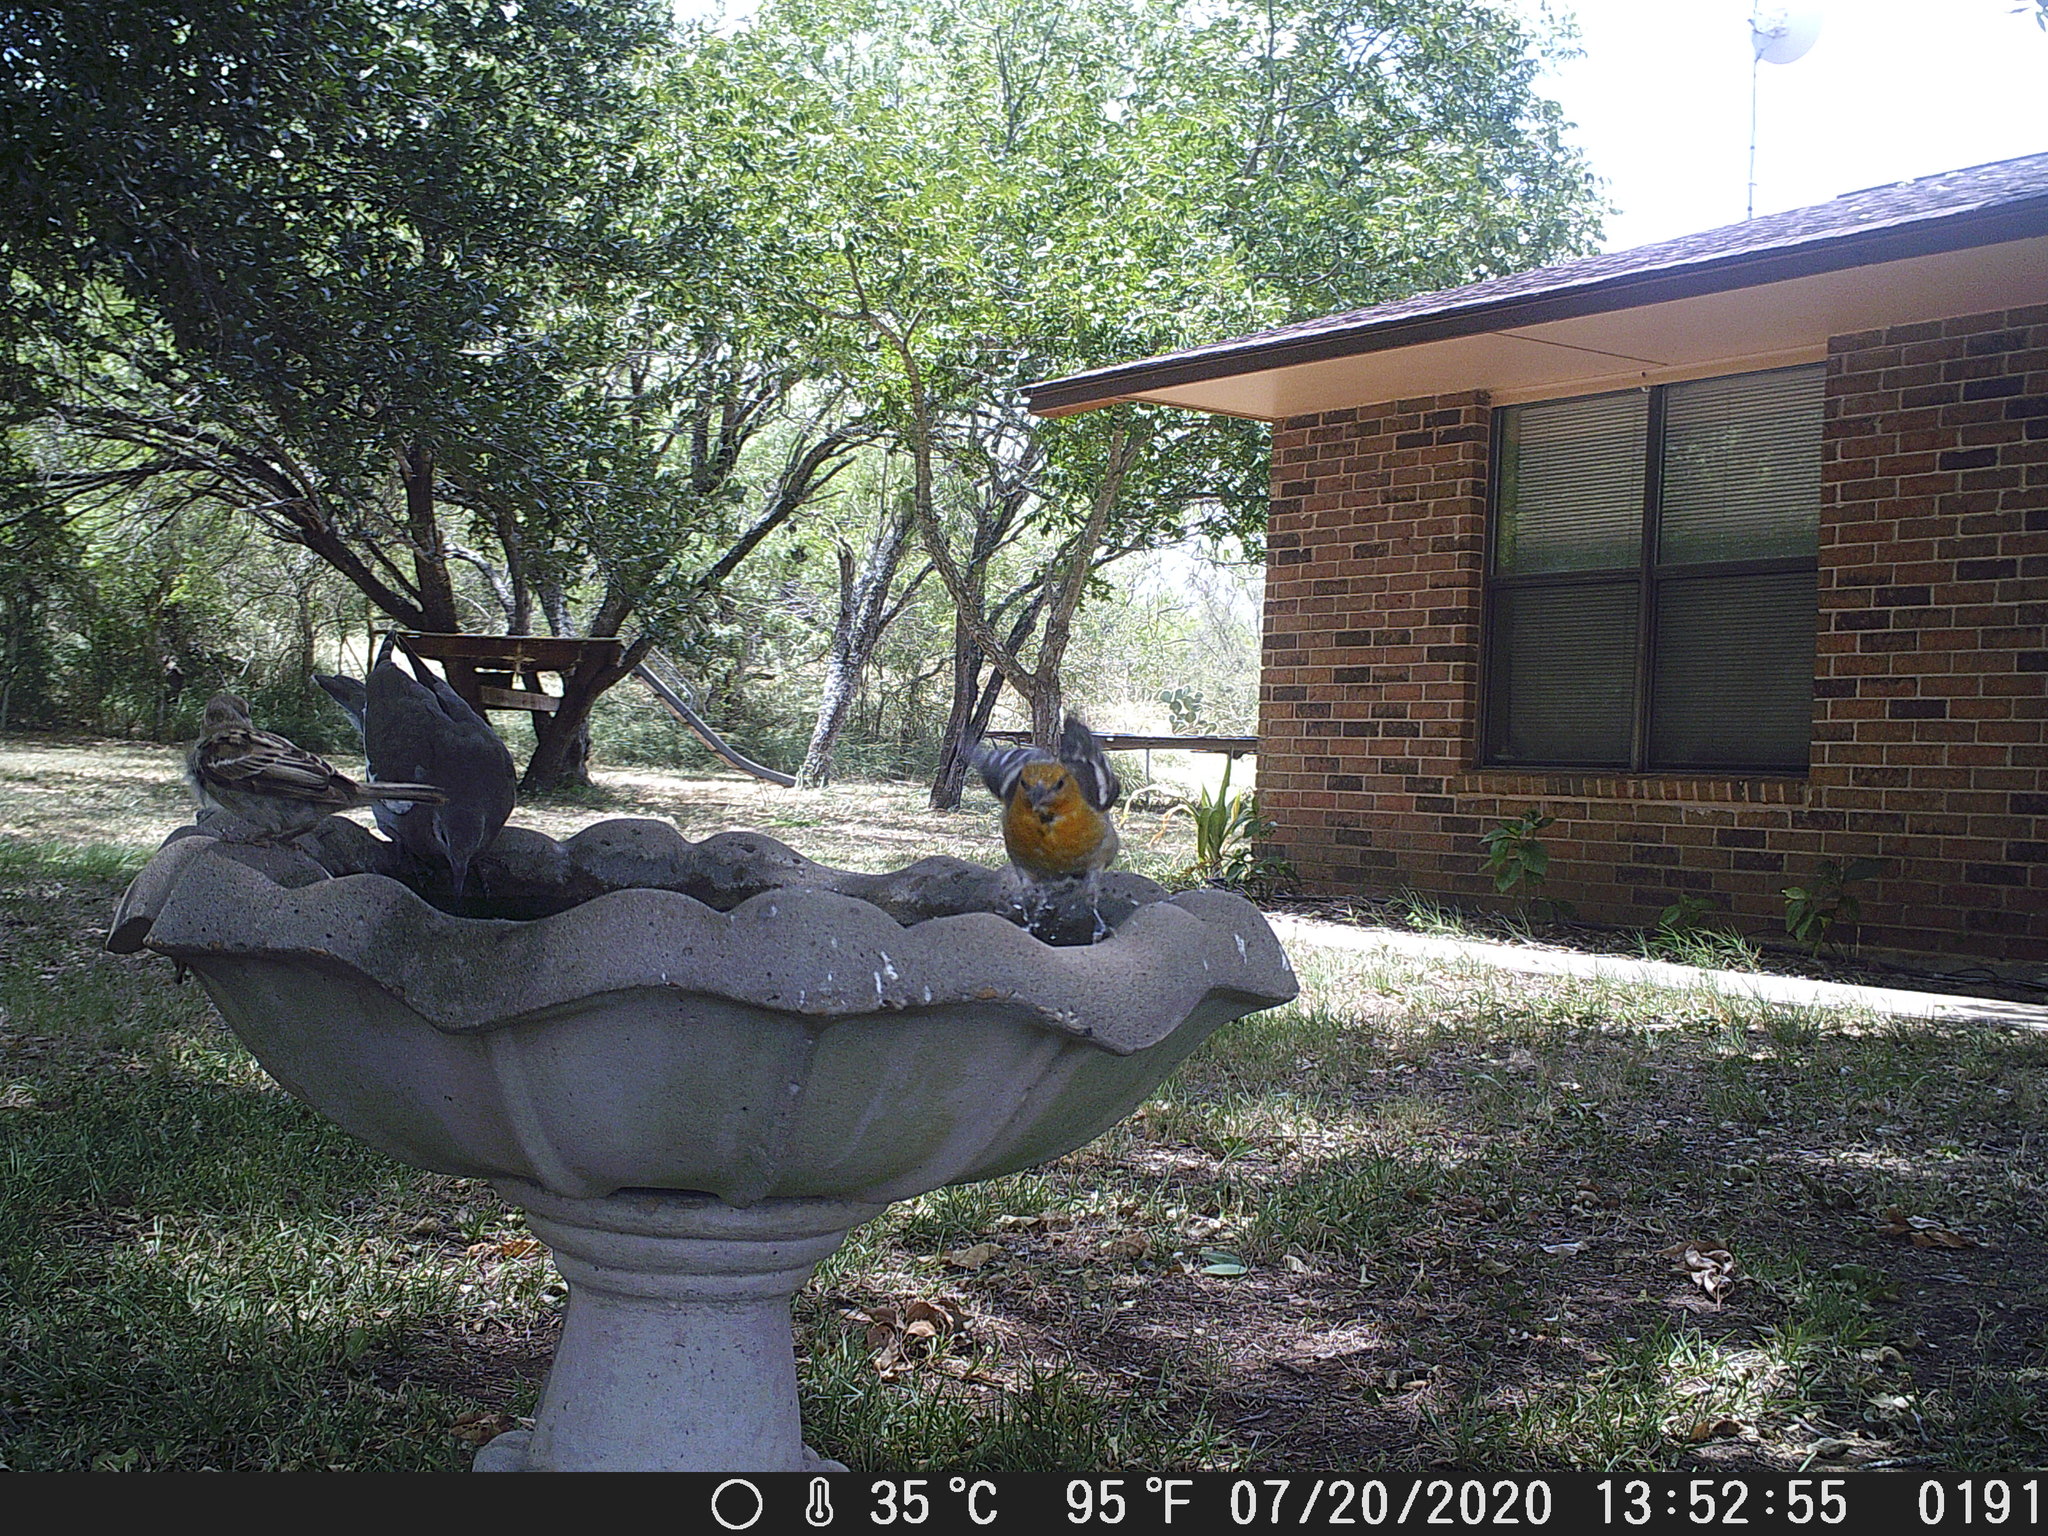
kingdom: Animalia
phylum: Chordata
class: Aves
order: Passeriformes
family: Icteridae
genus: Icterus
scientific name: Icterus bullockii
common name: Bullock's oriole
